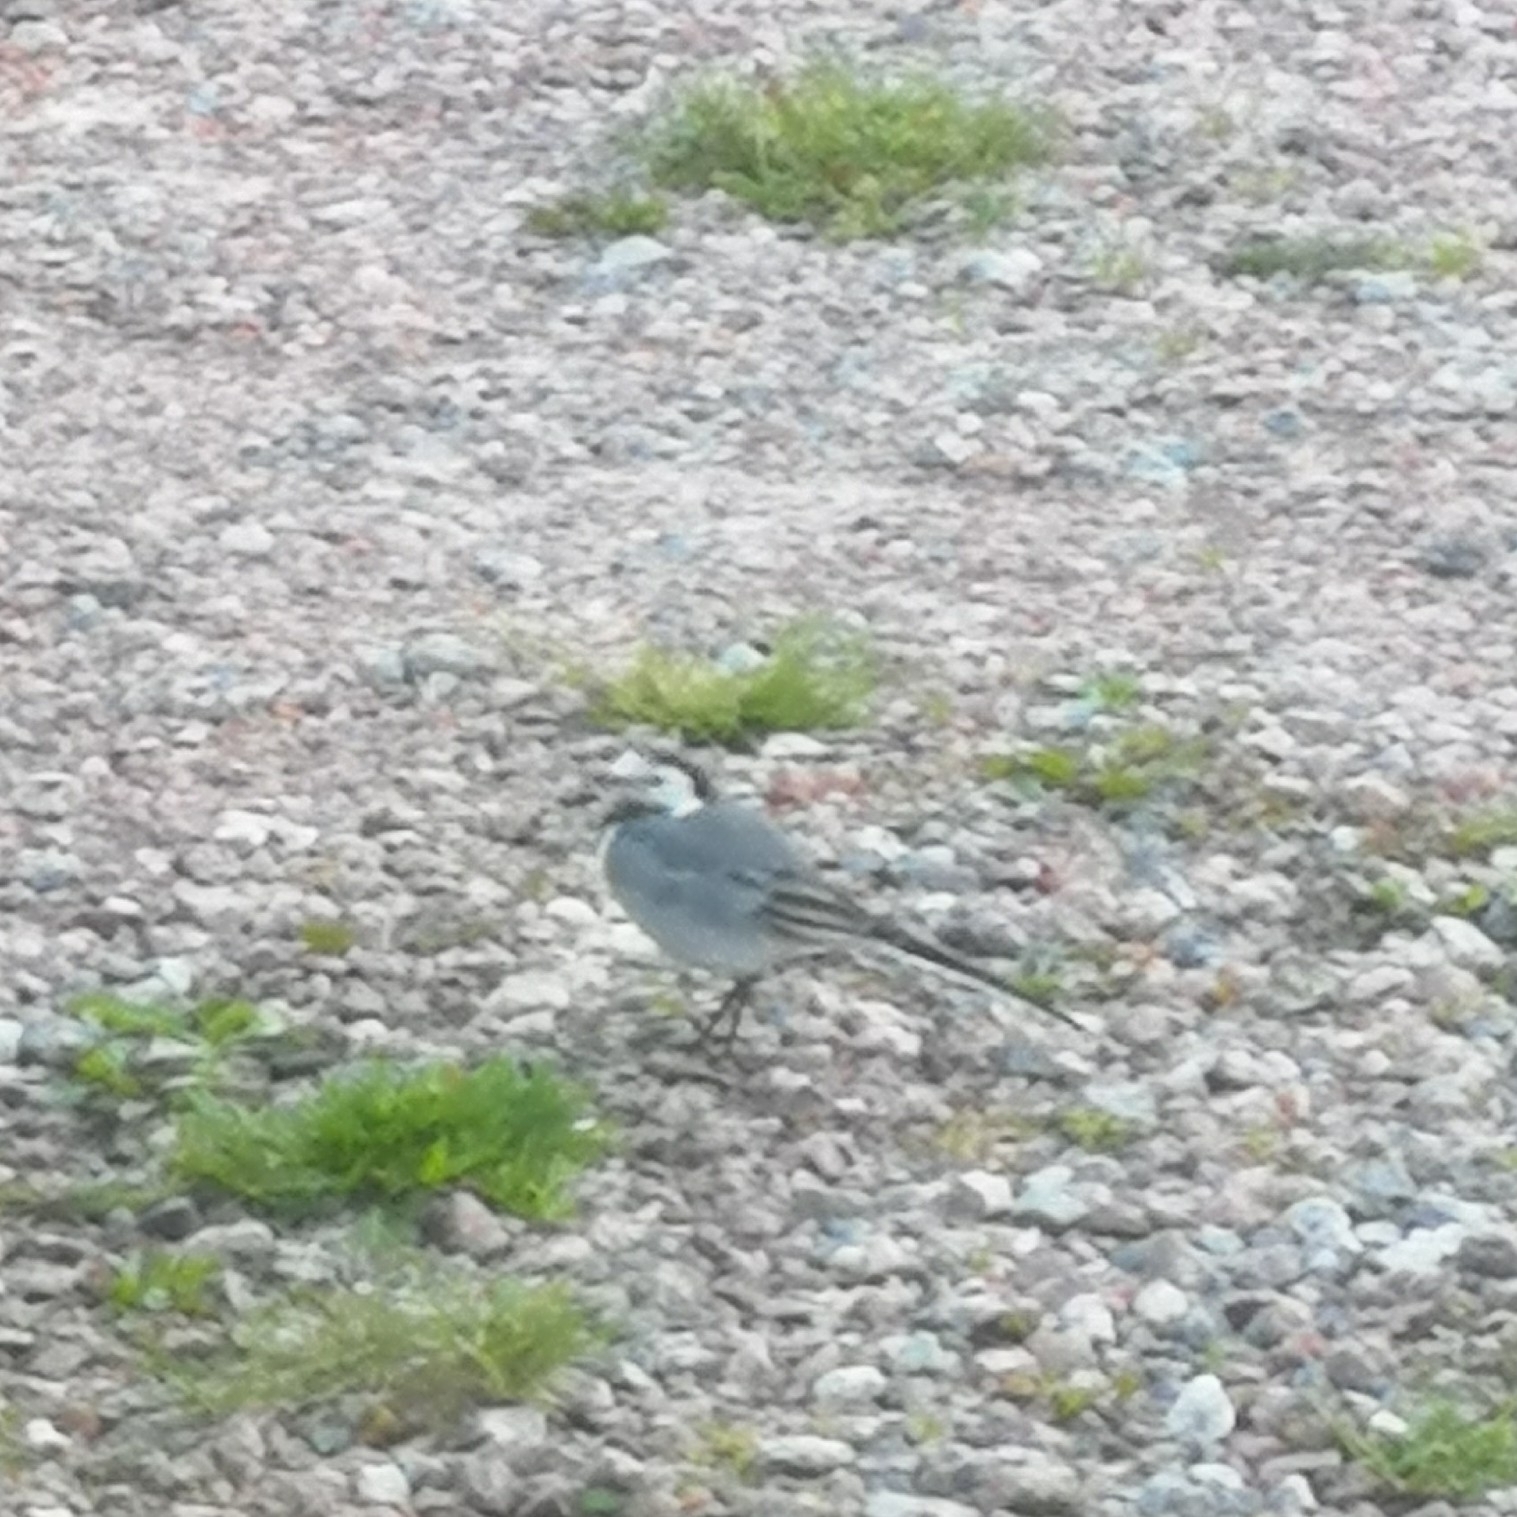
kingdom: Animalia
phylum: Chordata
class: Aves
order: Passeriformes
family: Motacillidae
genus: Motacilla
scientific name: Motacilla alba
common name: White wagtail
